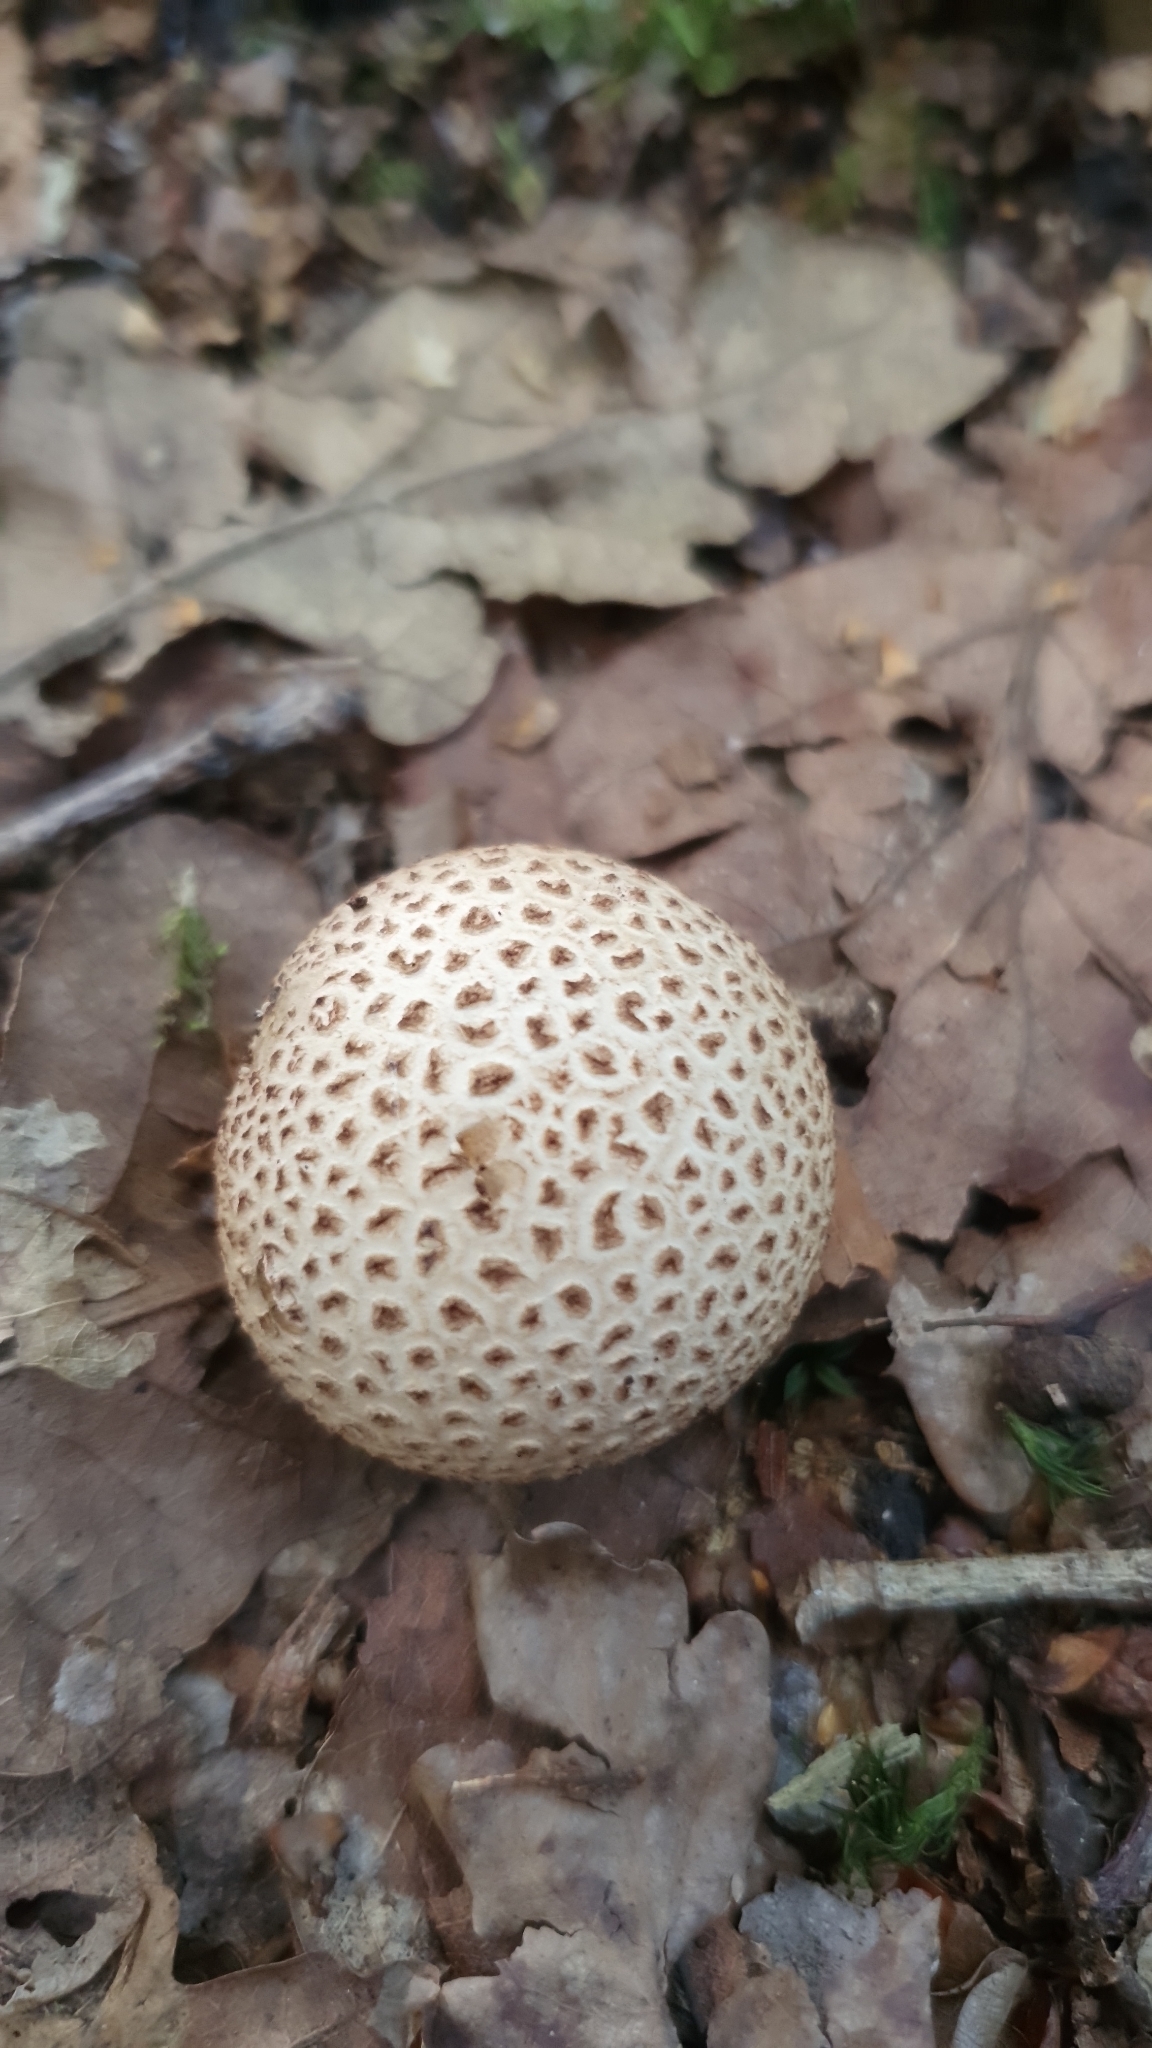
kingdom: Fungi
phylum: Basidiomycota
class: Agaricomycetes
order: Boletales
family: Sclerodermataceae
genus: Scleroderma
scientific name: Scleroderma citrinum
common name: Common earthball
